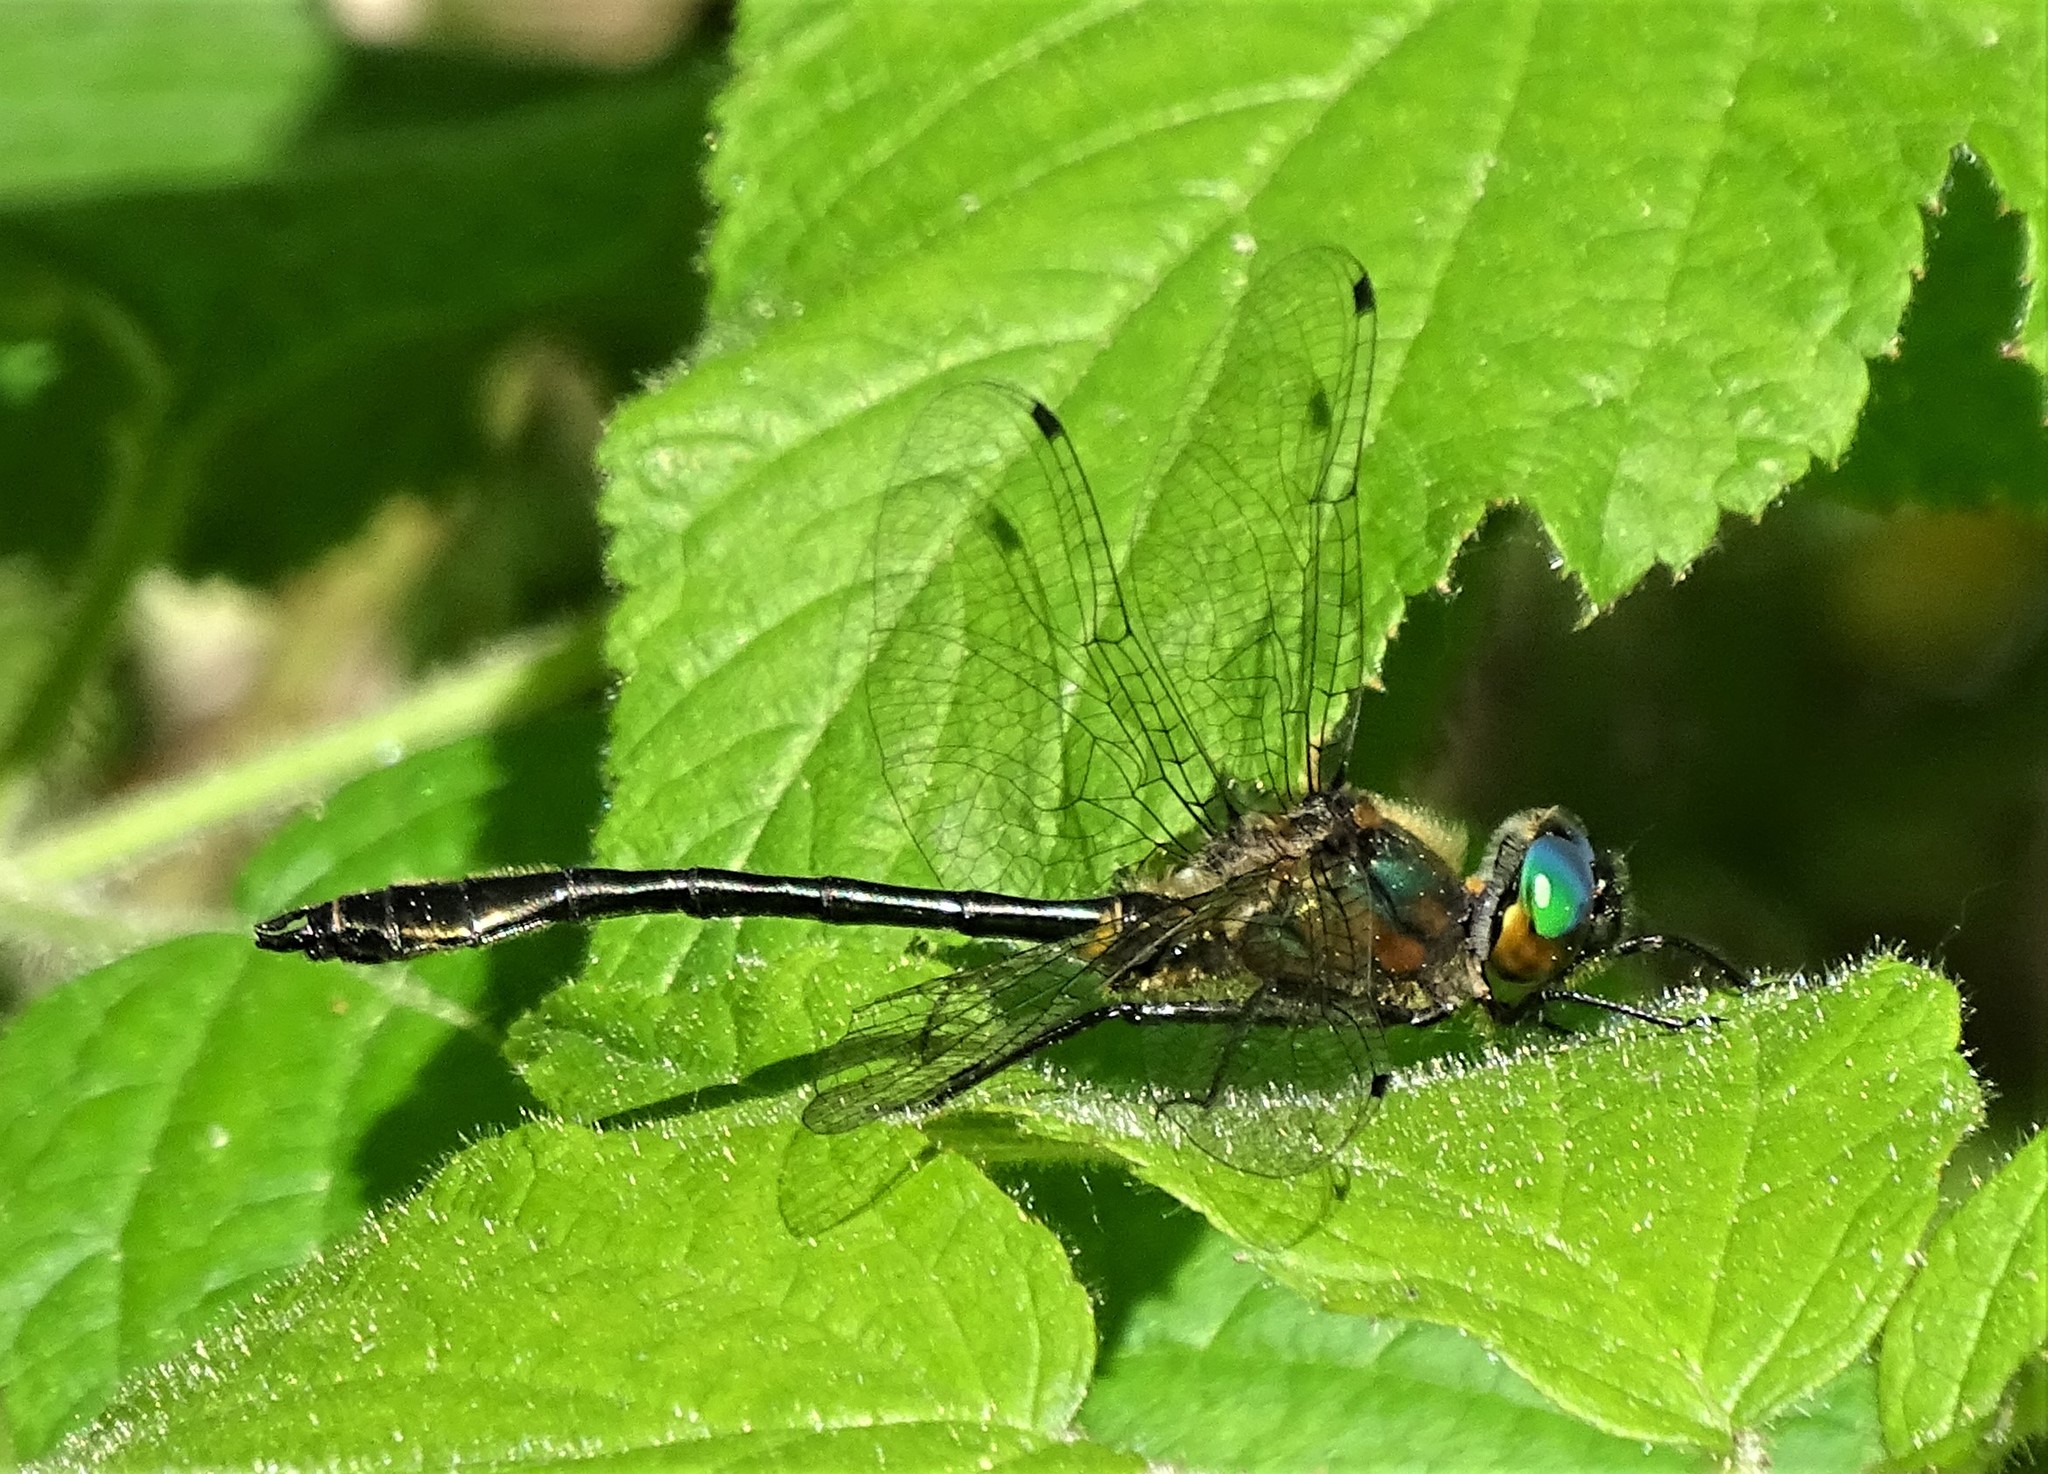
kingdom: Animalia
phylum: Arthropoda
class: Insecta
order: Odonata
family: Corduliidae
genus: Dorocordulia
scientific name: Dorocordulia libera
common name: Racket-tailed emerald
